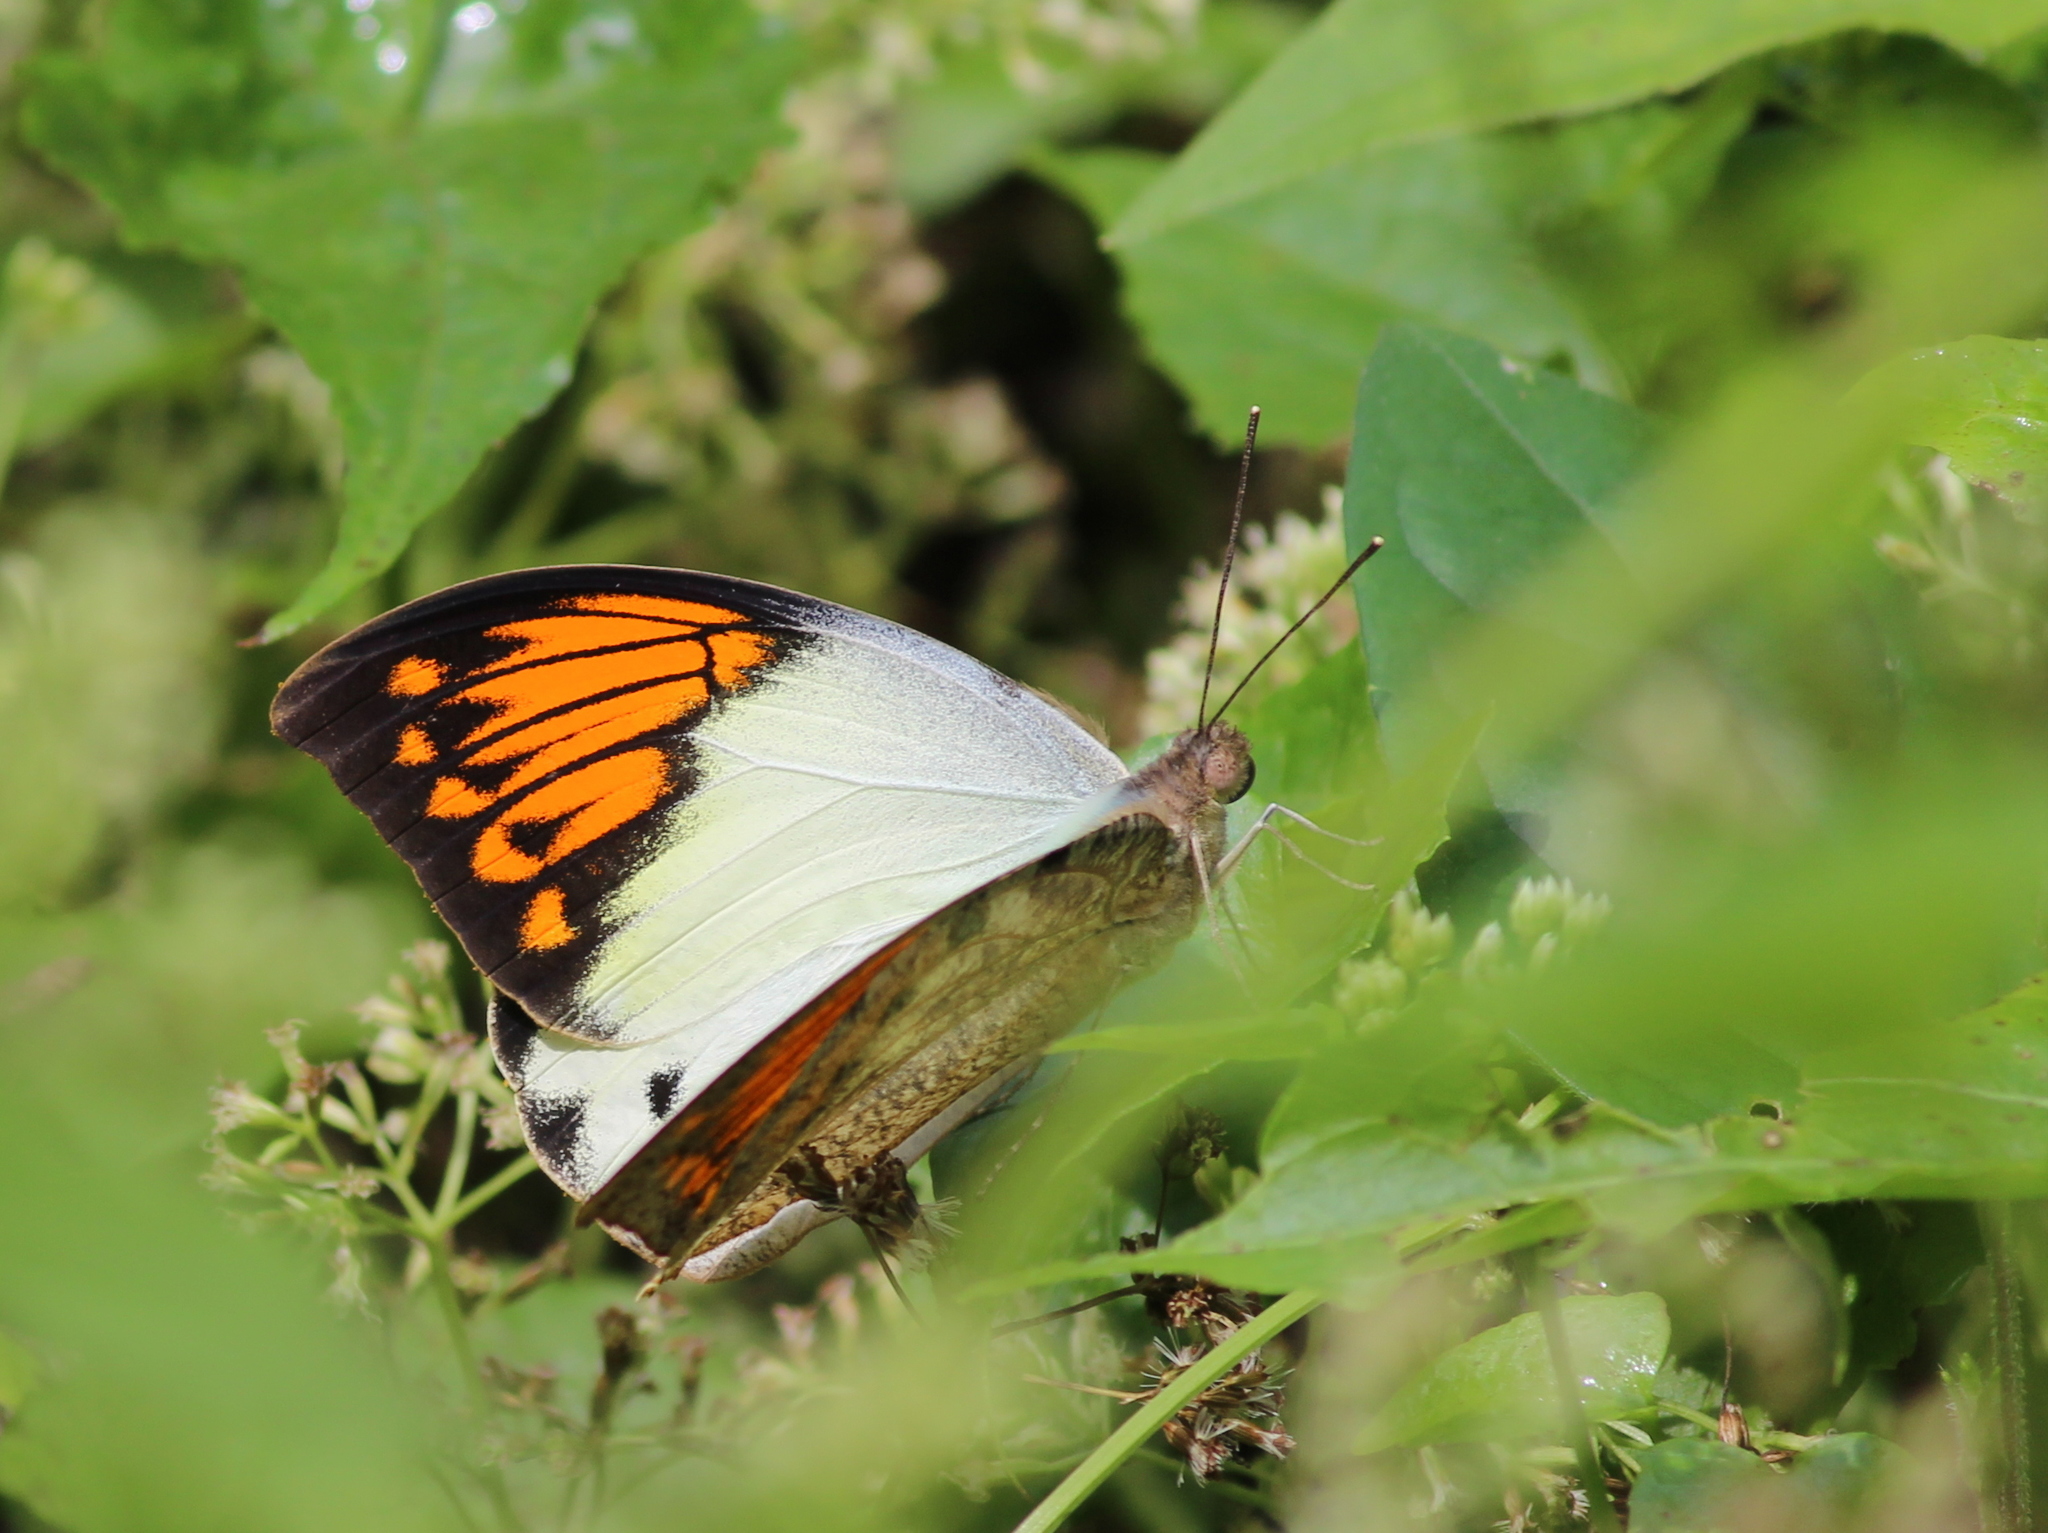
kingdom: Animalia
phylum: Arthropoda
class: Insecta
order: Lepidoptera
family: Pieridae
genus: Hebomoia
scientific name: Hebomoia glaucippe
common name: Great orange tip
